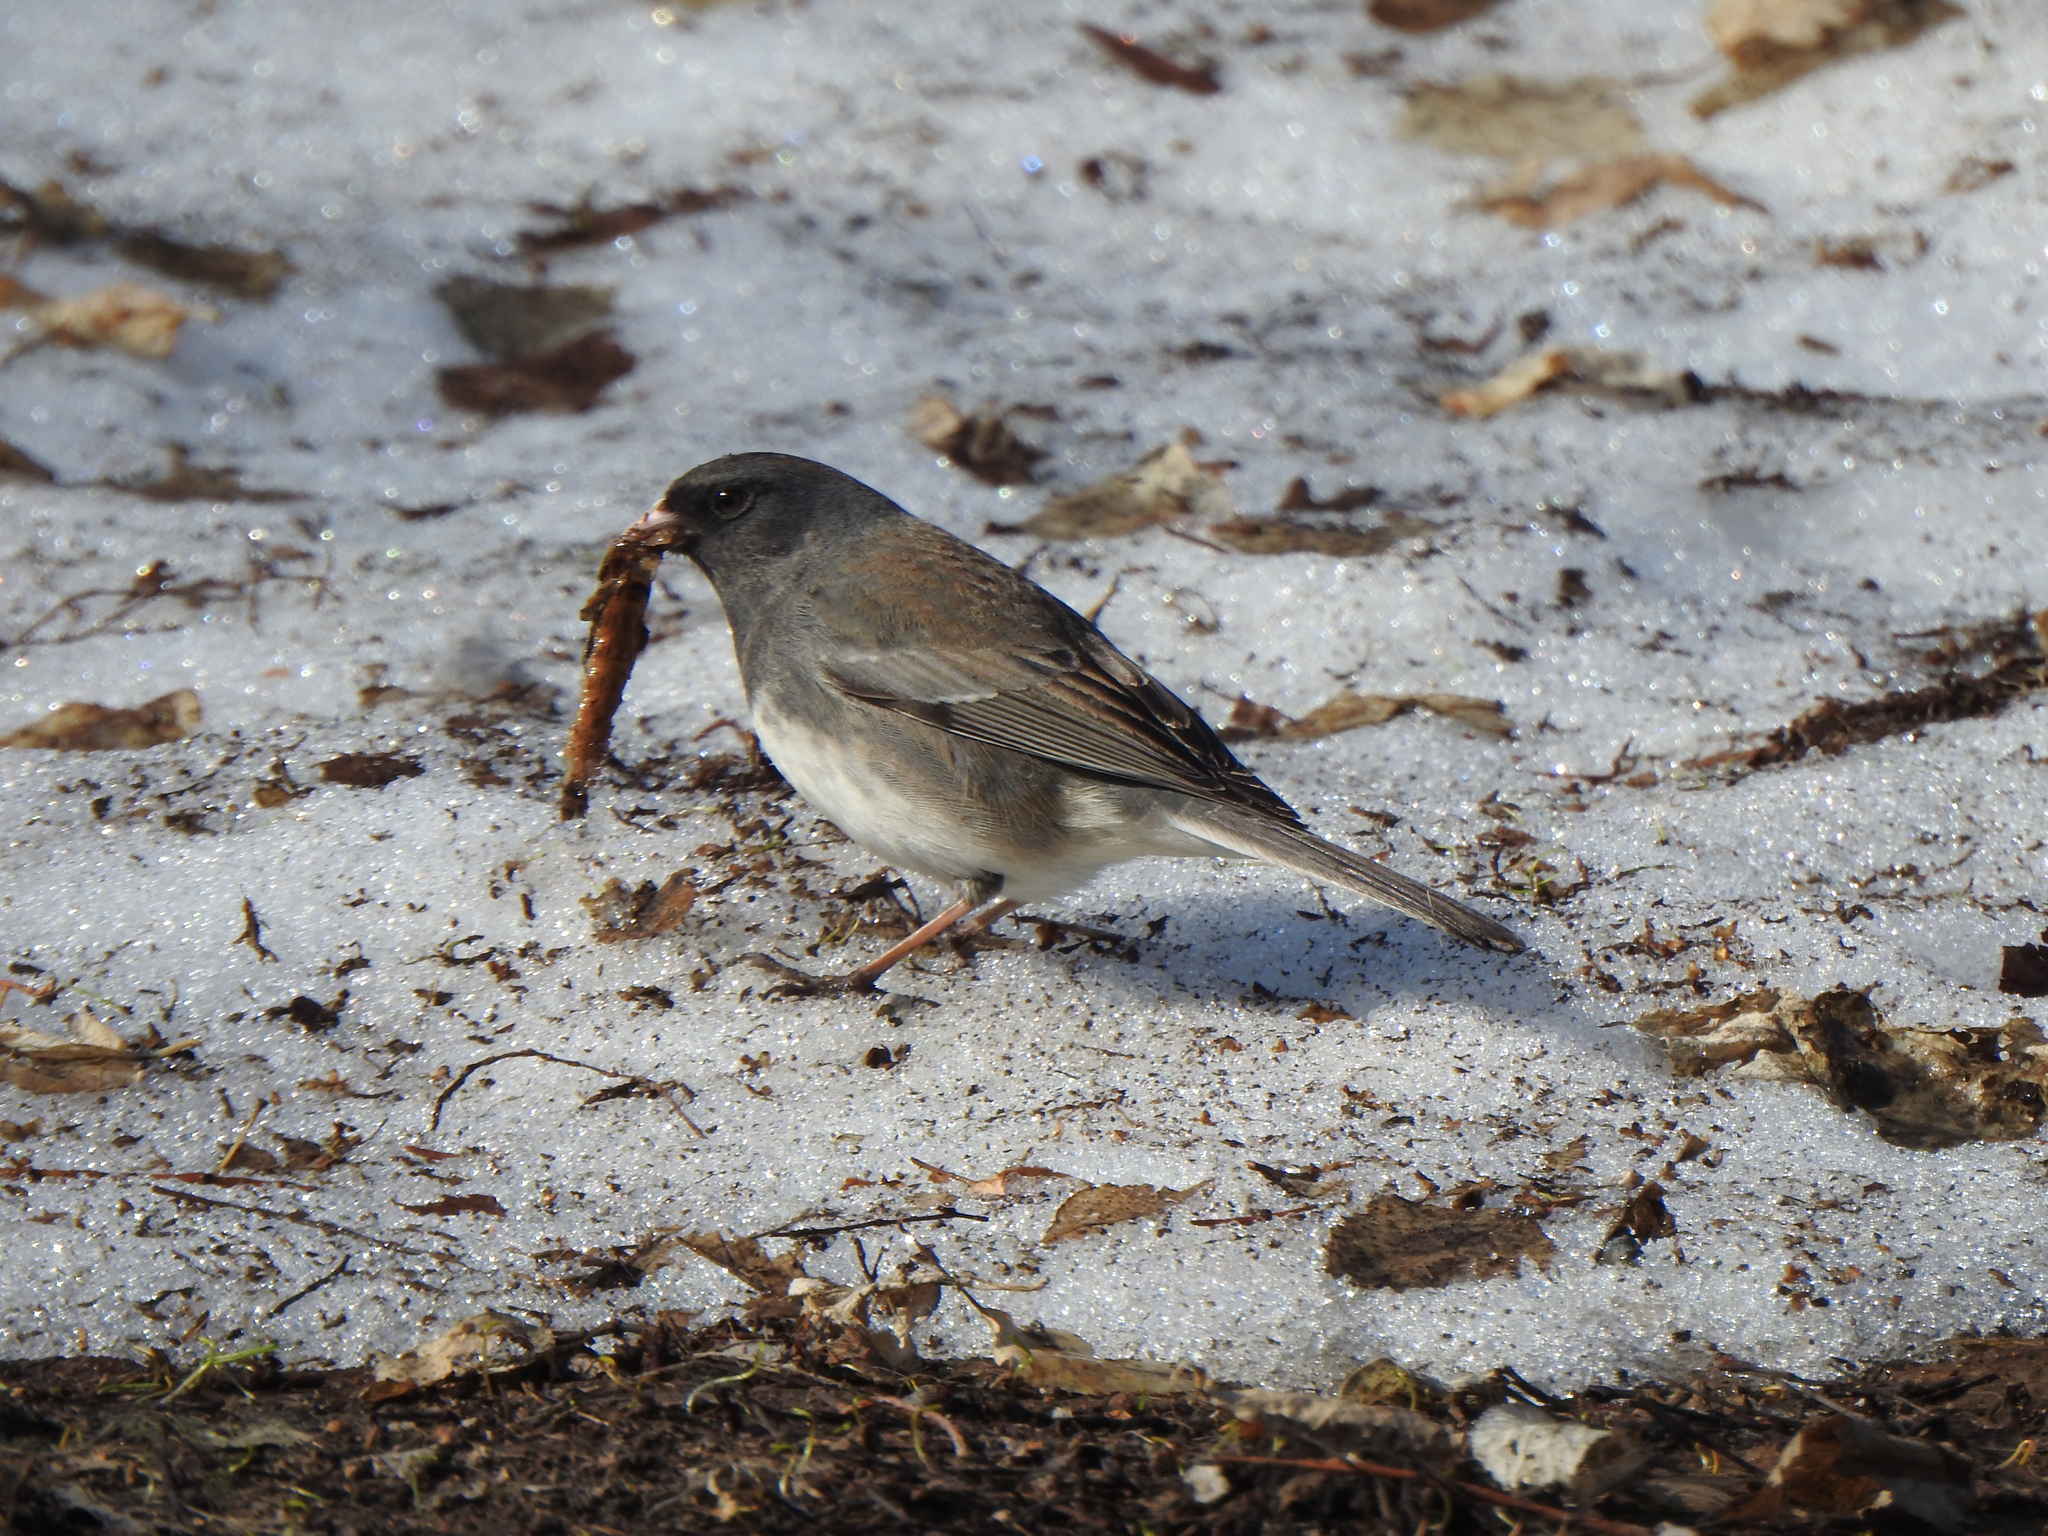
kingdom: Animalia
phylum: Chordata
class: Aves
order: Passeriformes
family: Passerellidae
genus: Junco
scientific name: Junco hyemalis
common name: Dark-eyed junco
